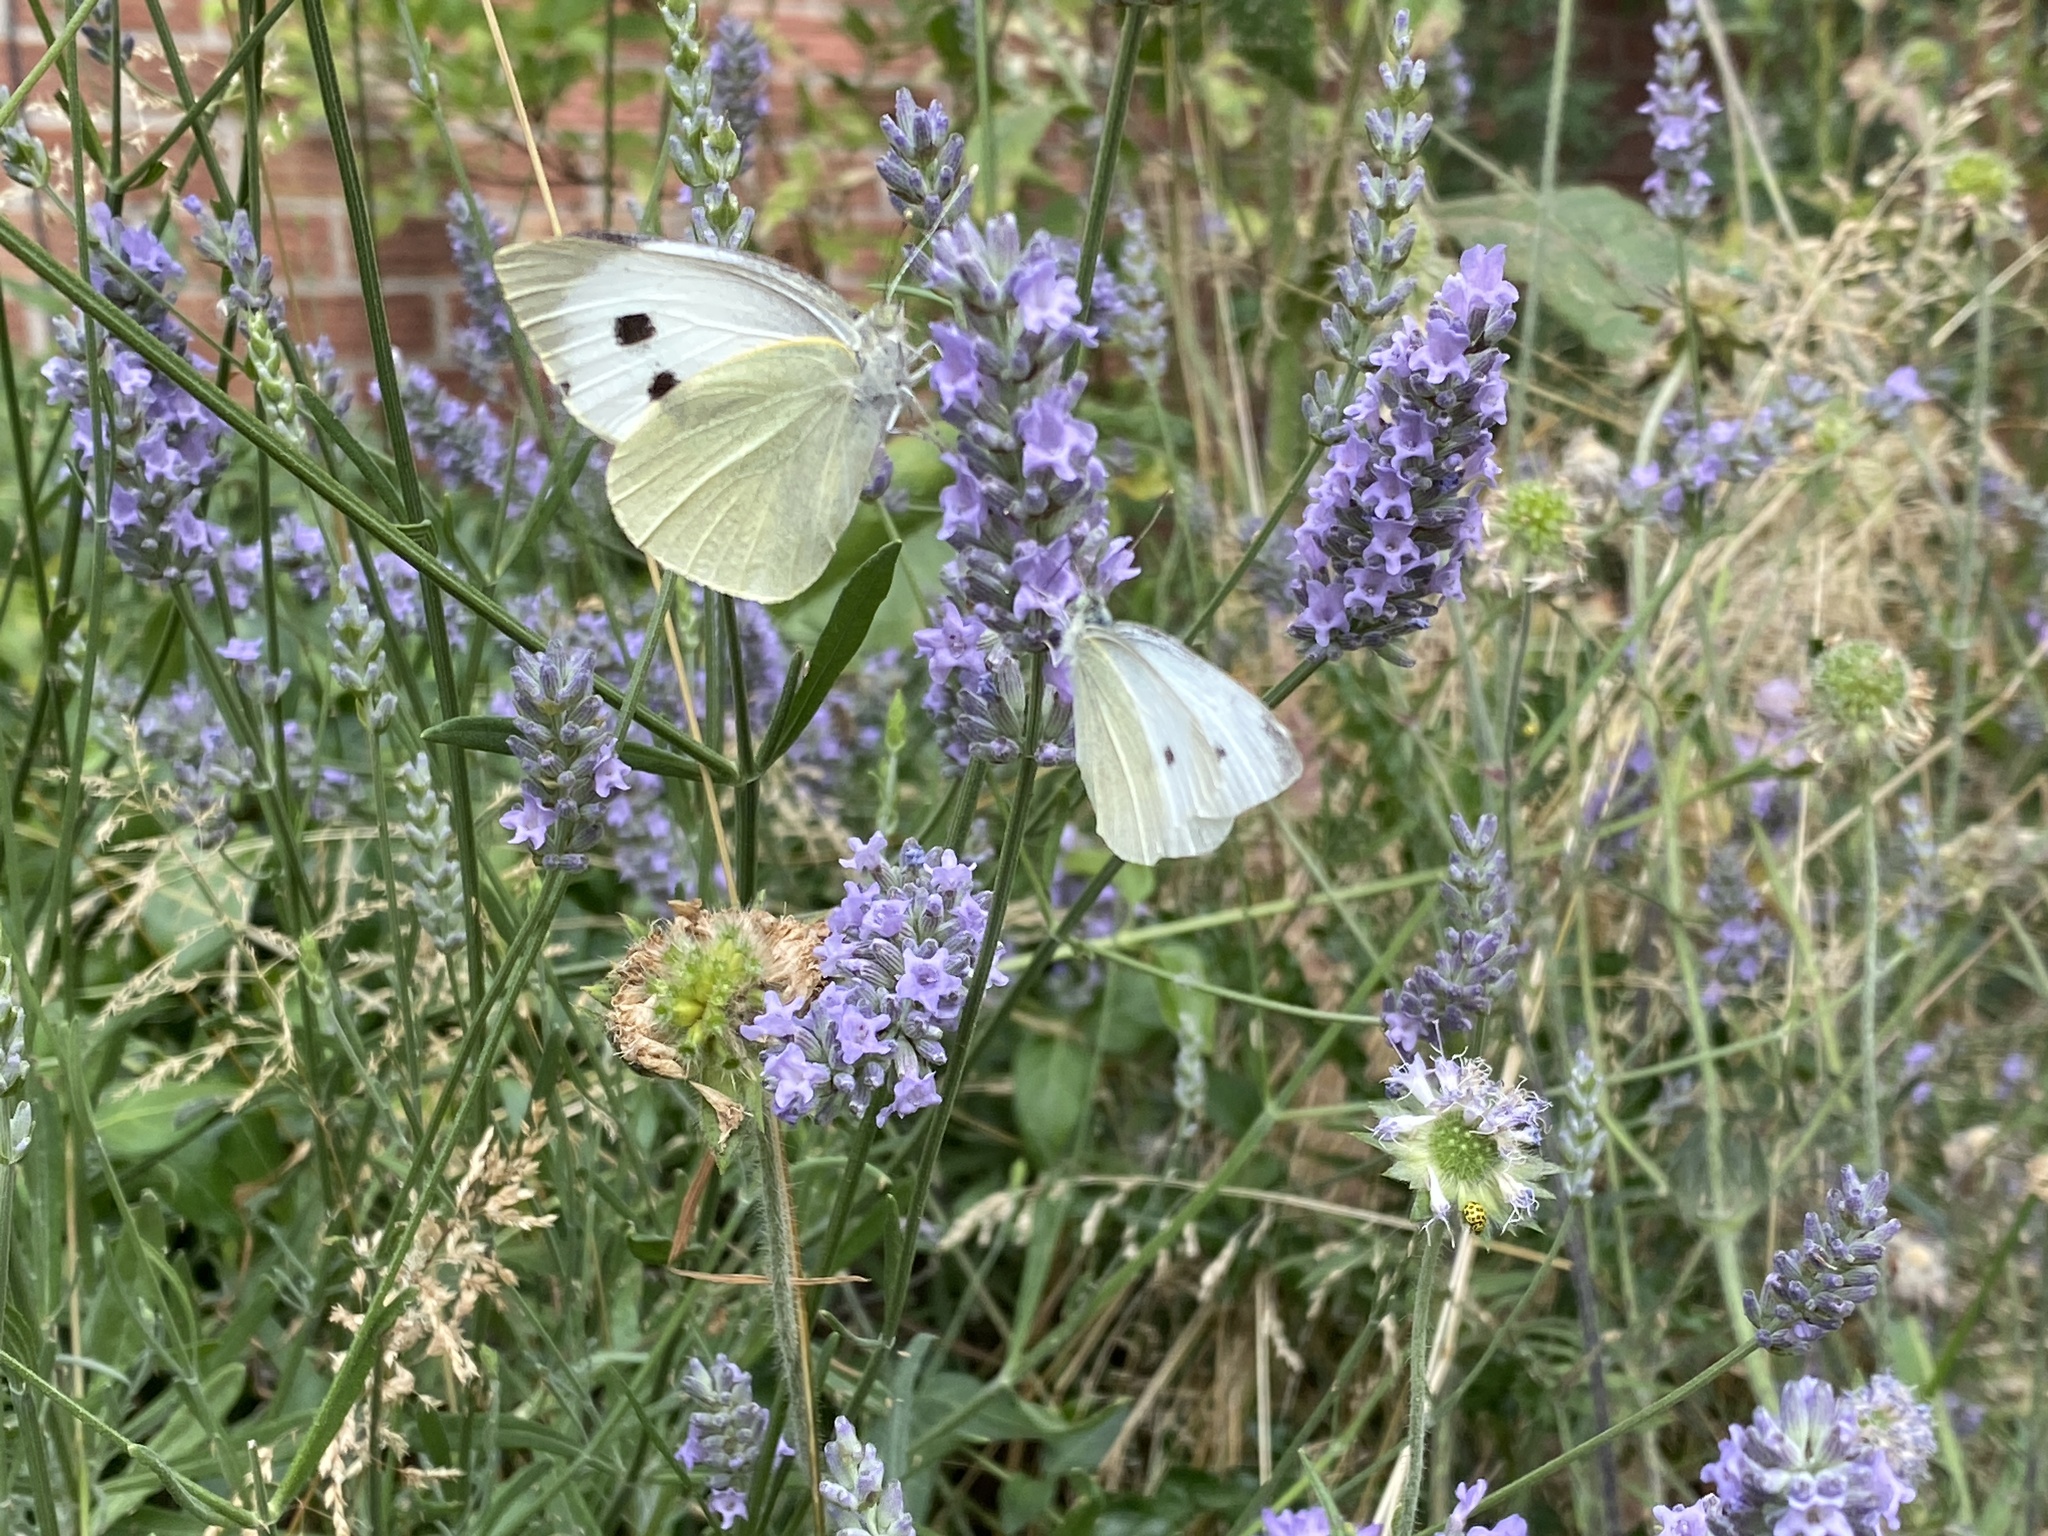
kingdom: Animalia
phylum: Arthropoda
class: Insecta
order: Lepidoptera
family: Pieridae
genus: Pieris
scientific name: Pieris rapae
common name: Small white
